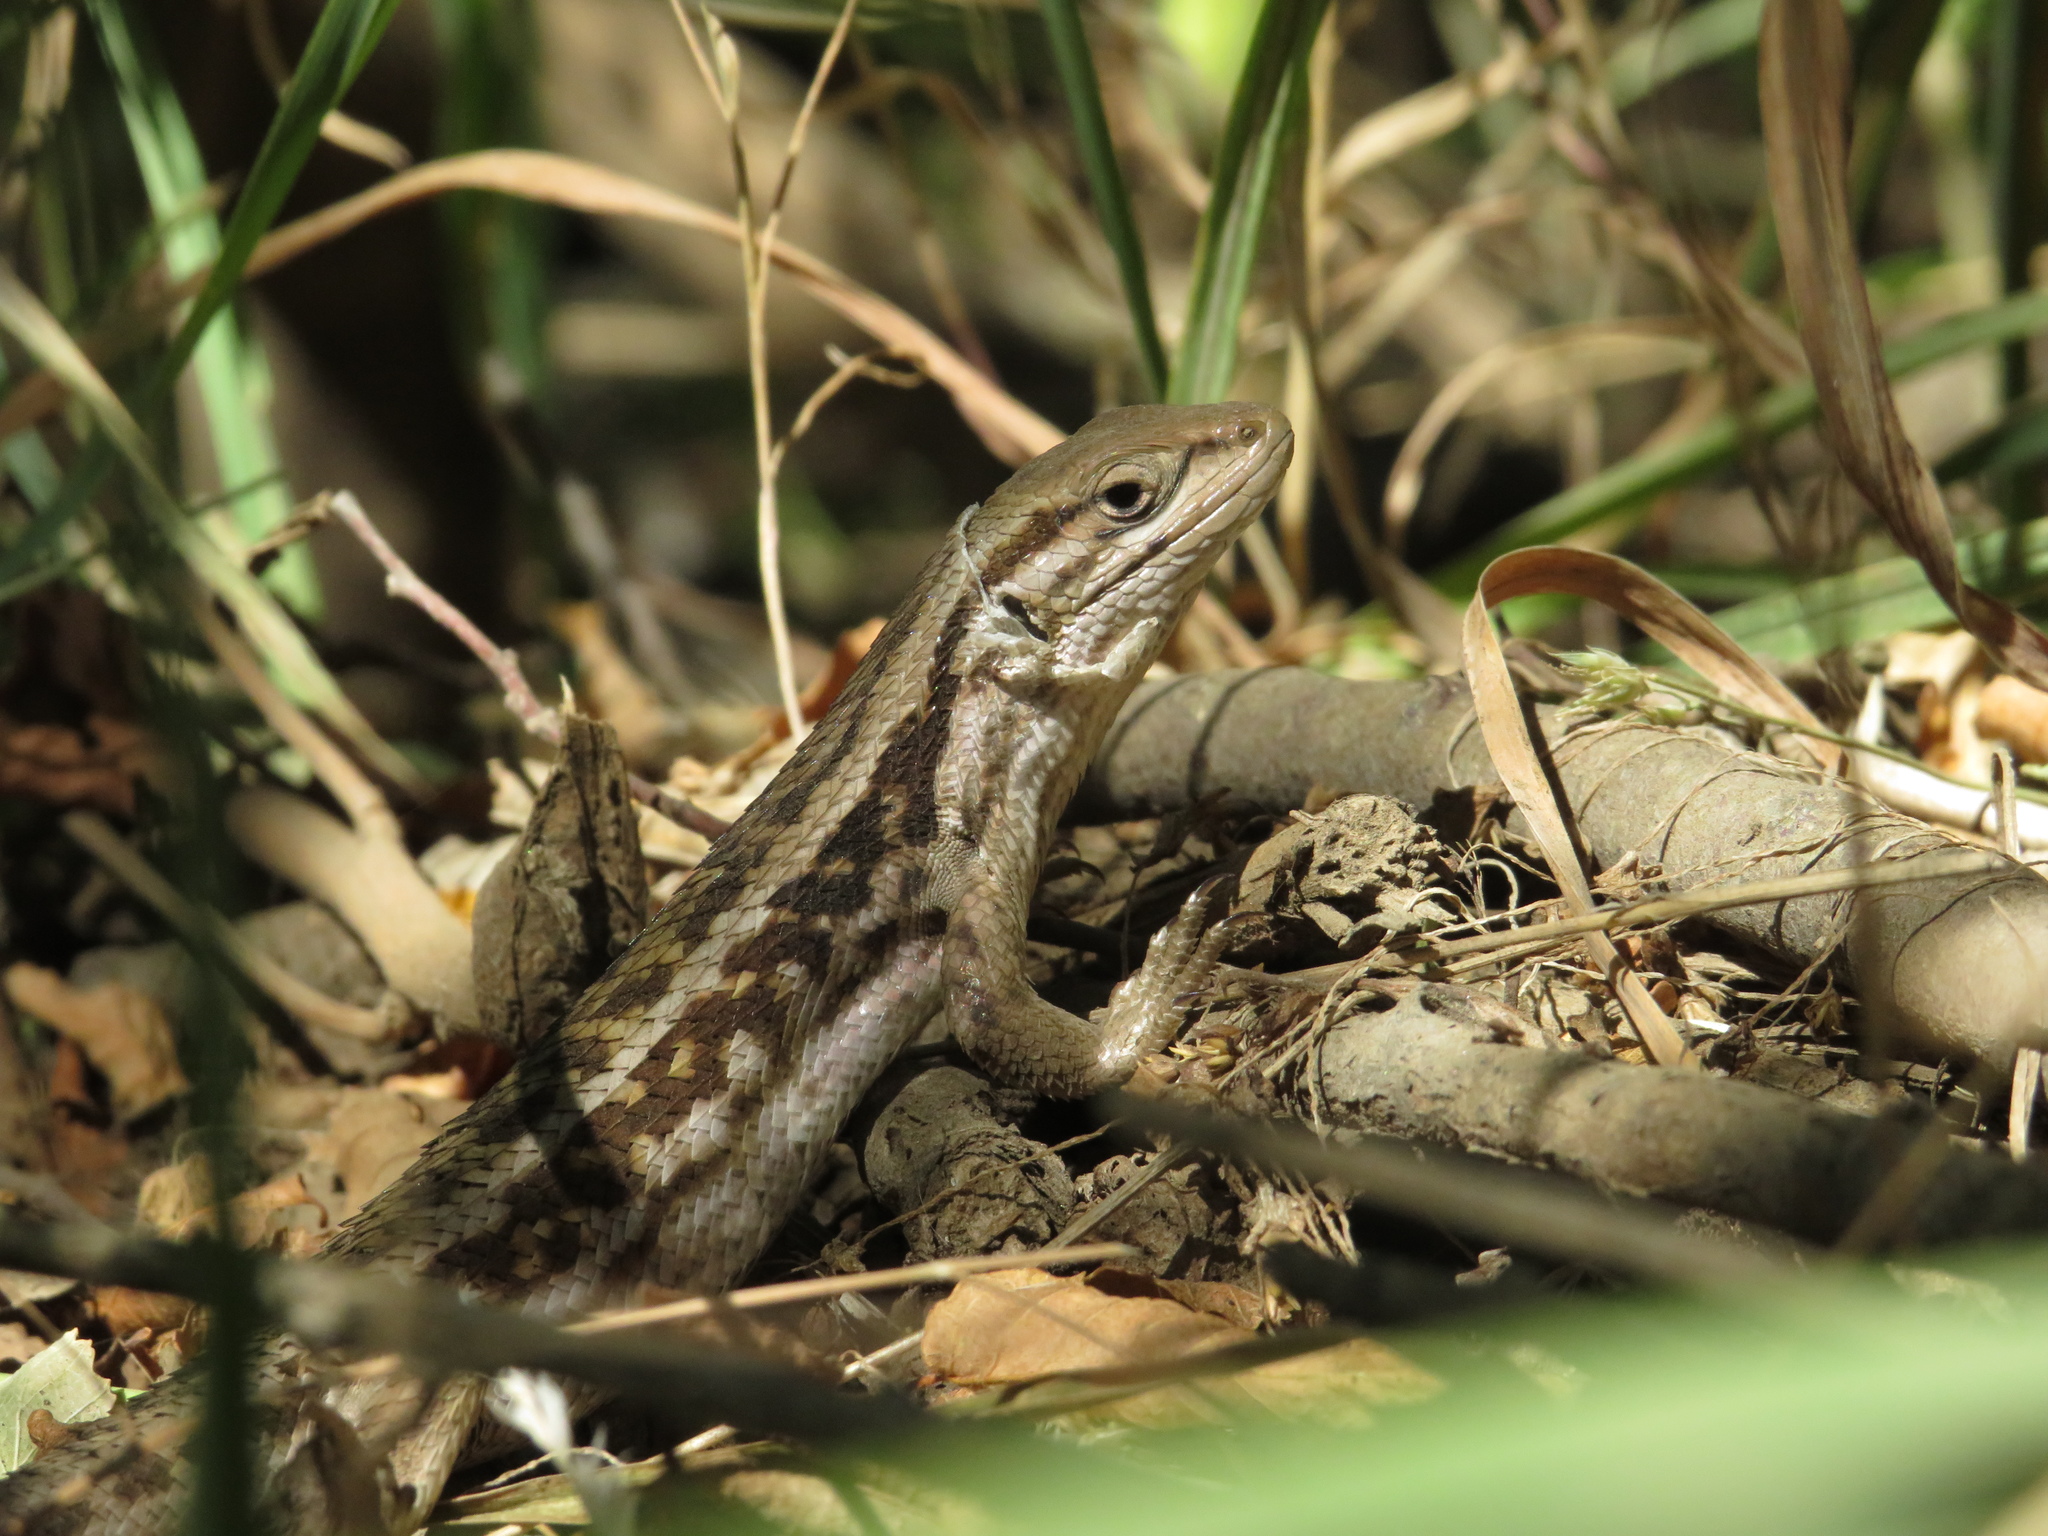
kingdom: Animalia
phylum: Chordata
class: Squamata
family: Liolaemidae
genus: Liolaemus
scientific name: Liolaemus chiliensis
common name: Chilean tree iguana
